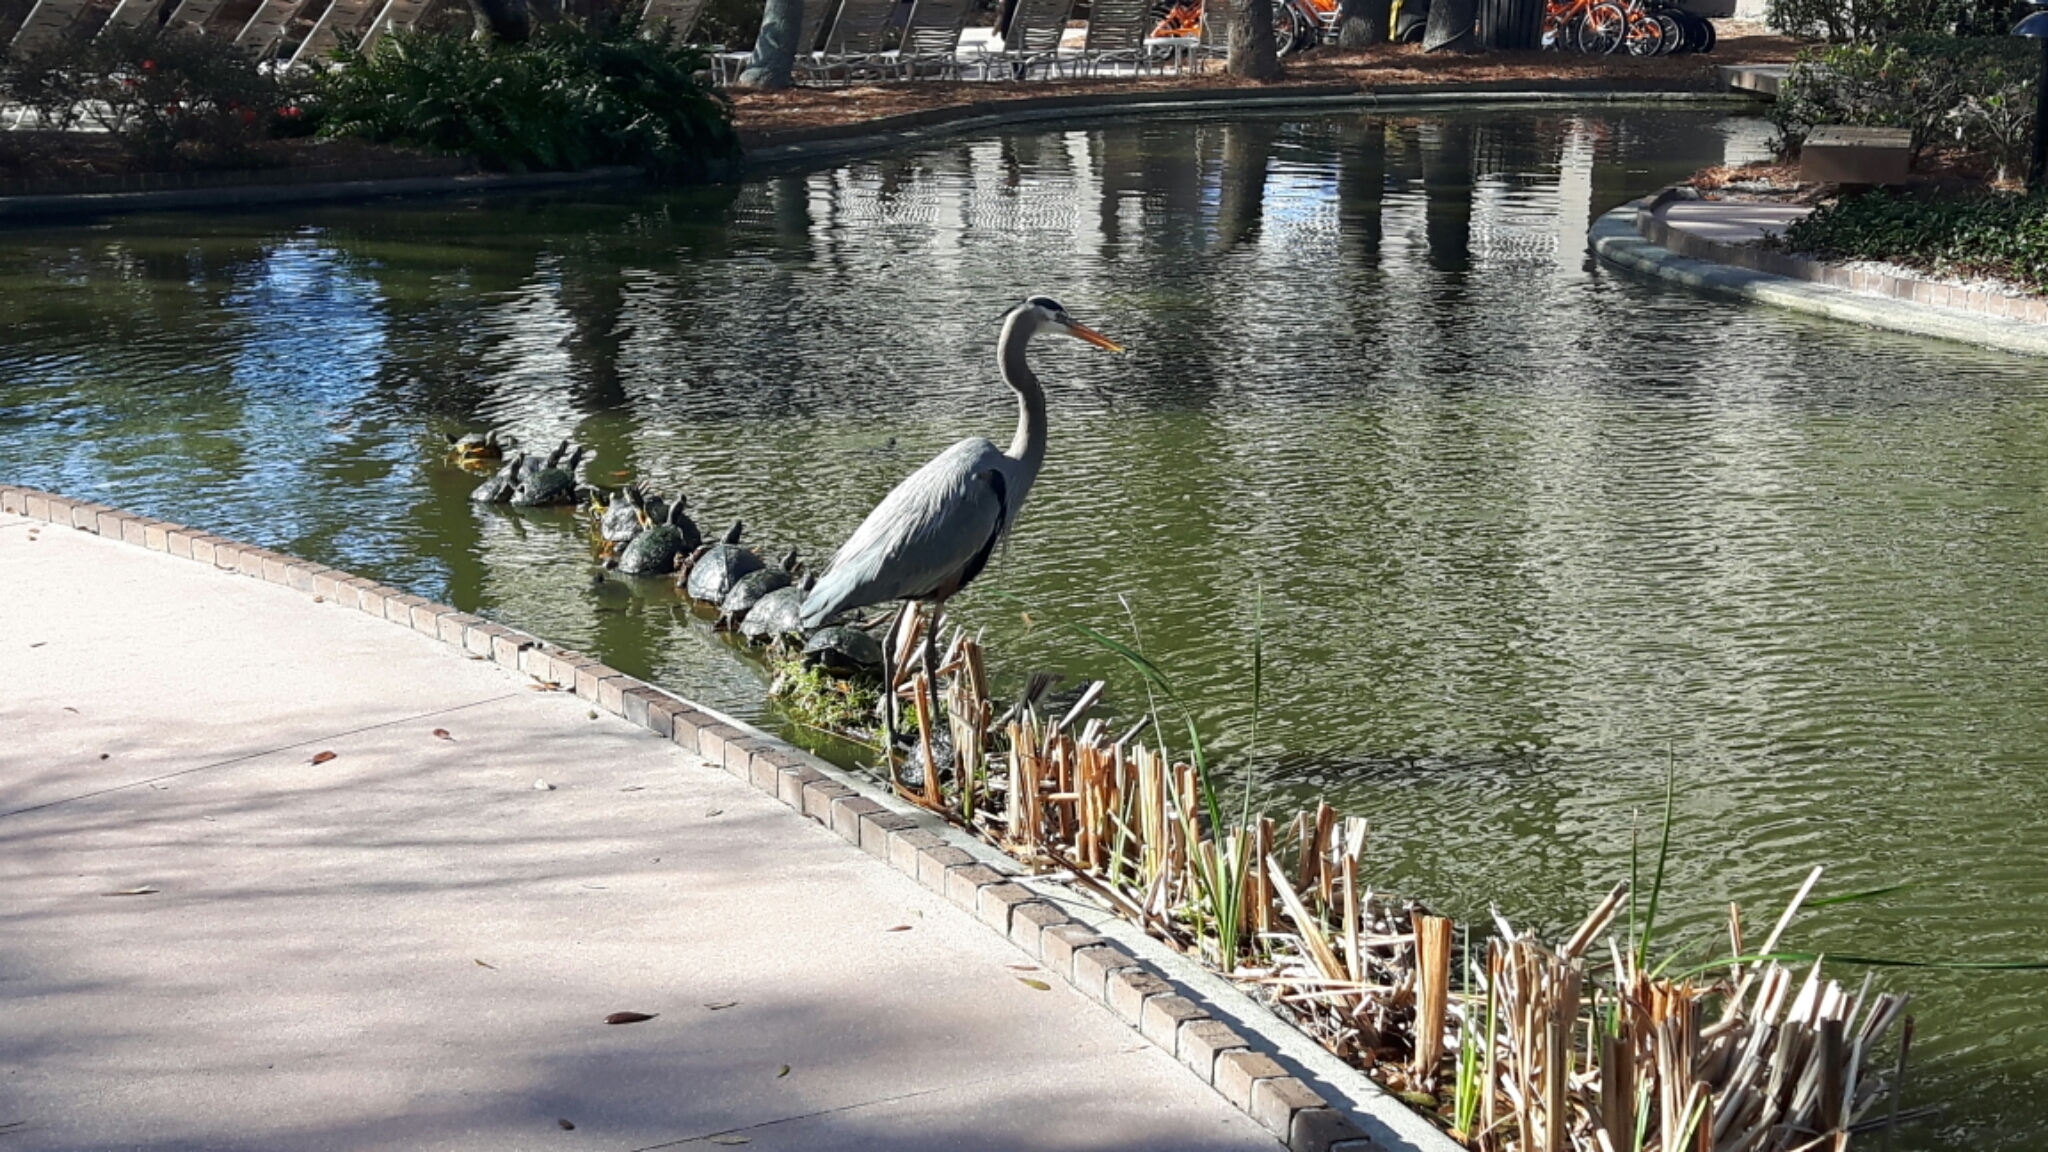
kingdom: Animalia
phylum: Chordata
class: Aves
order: Pelecaniformes
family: Ardeidae
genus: Ardea
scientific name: Ardea herodias
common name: Great blue heron
